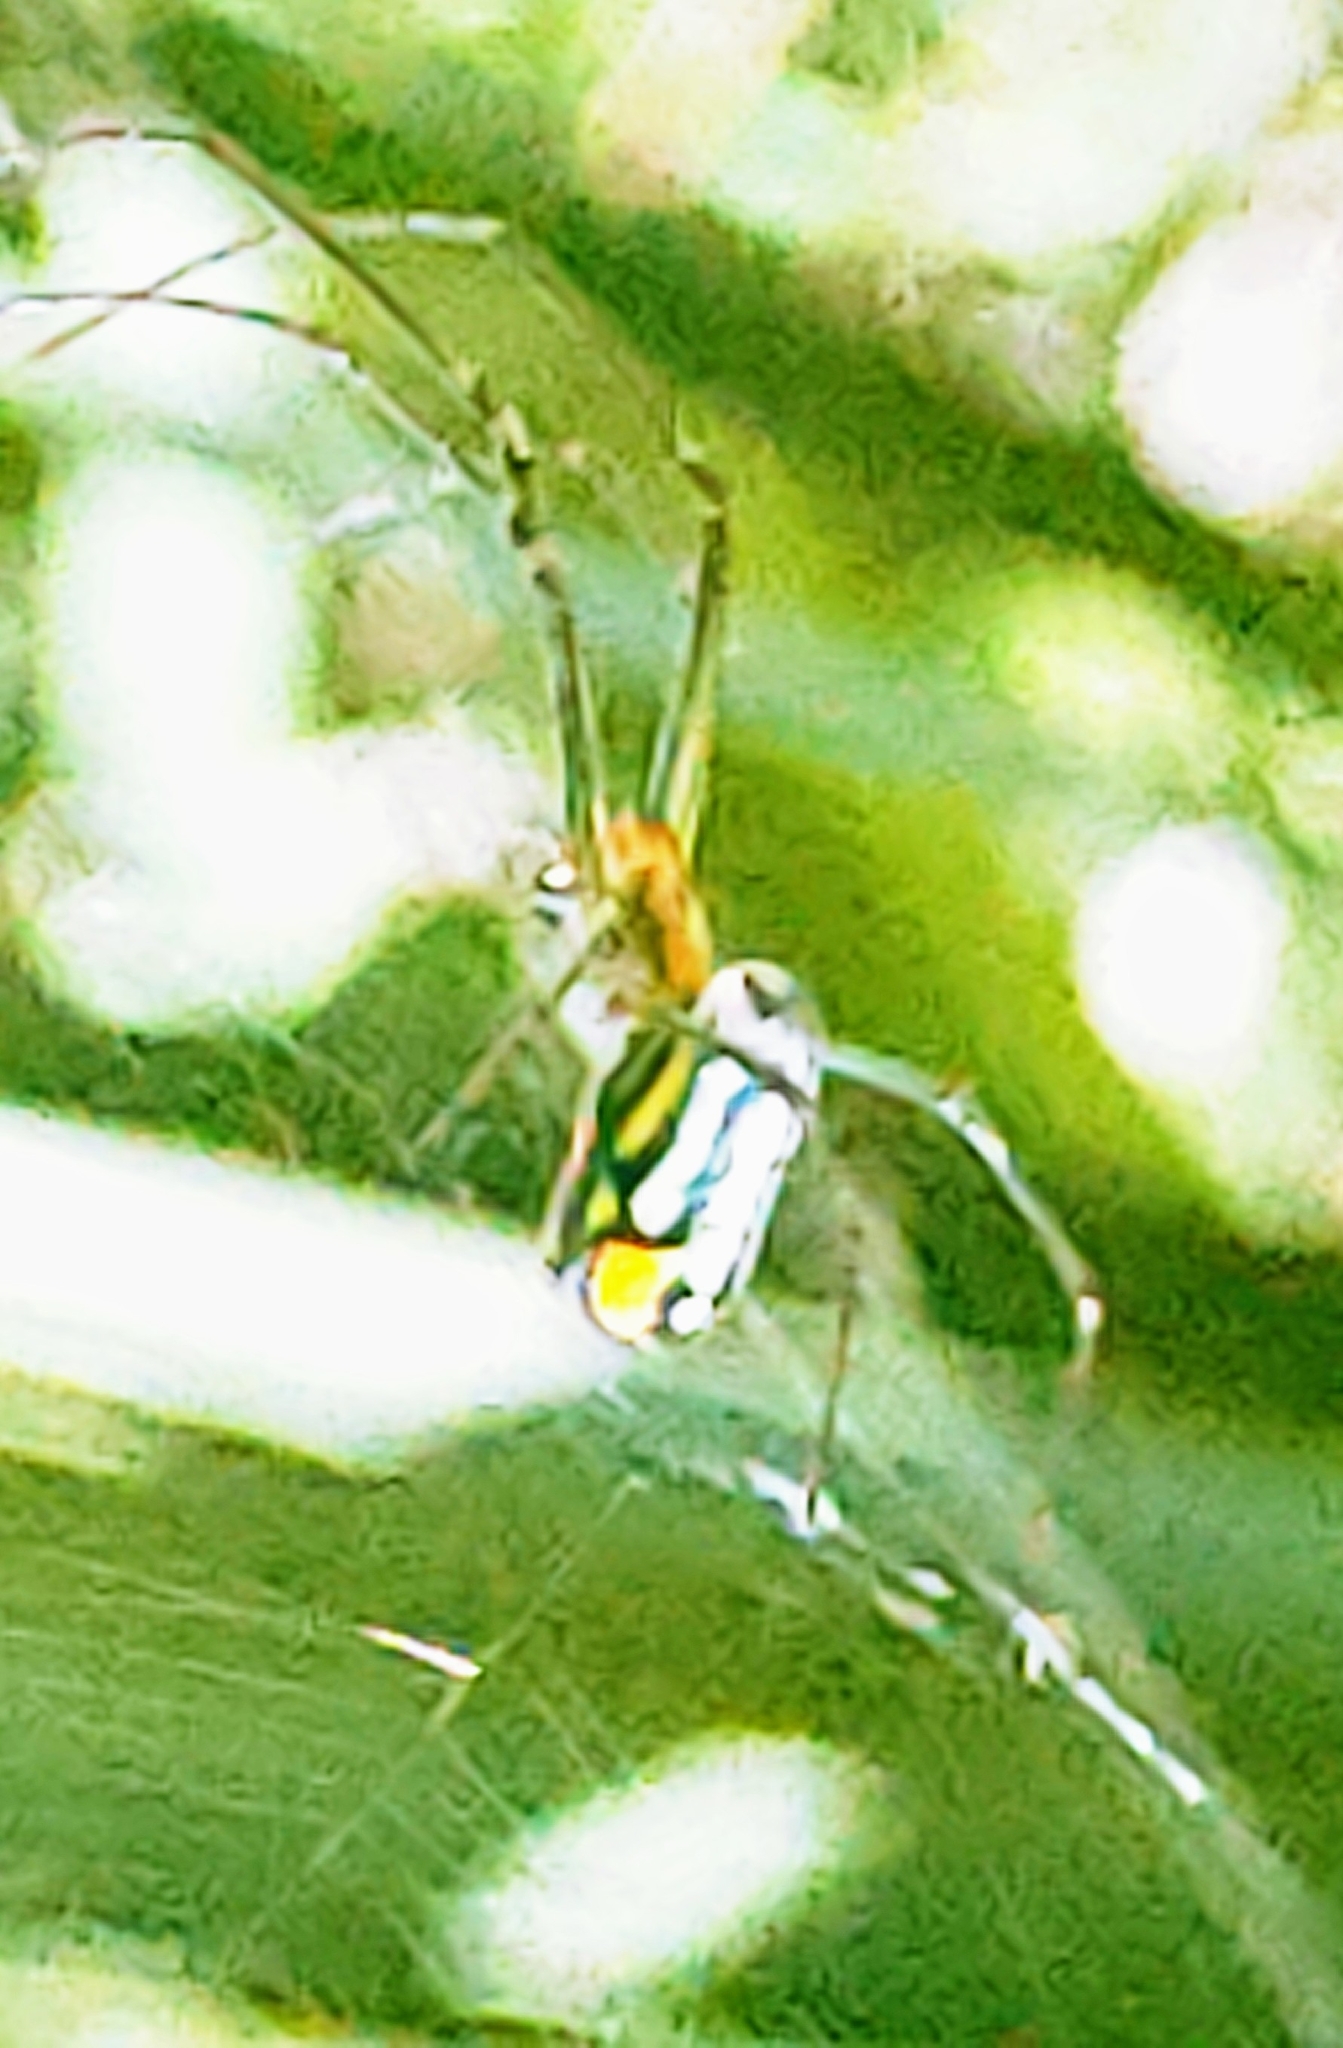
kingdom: Animalia
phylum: Arthropoda
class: Arachnida
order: Araneae
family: Tetragnathidae
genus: Leucauge
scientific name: Leucauge argyrobapta
